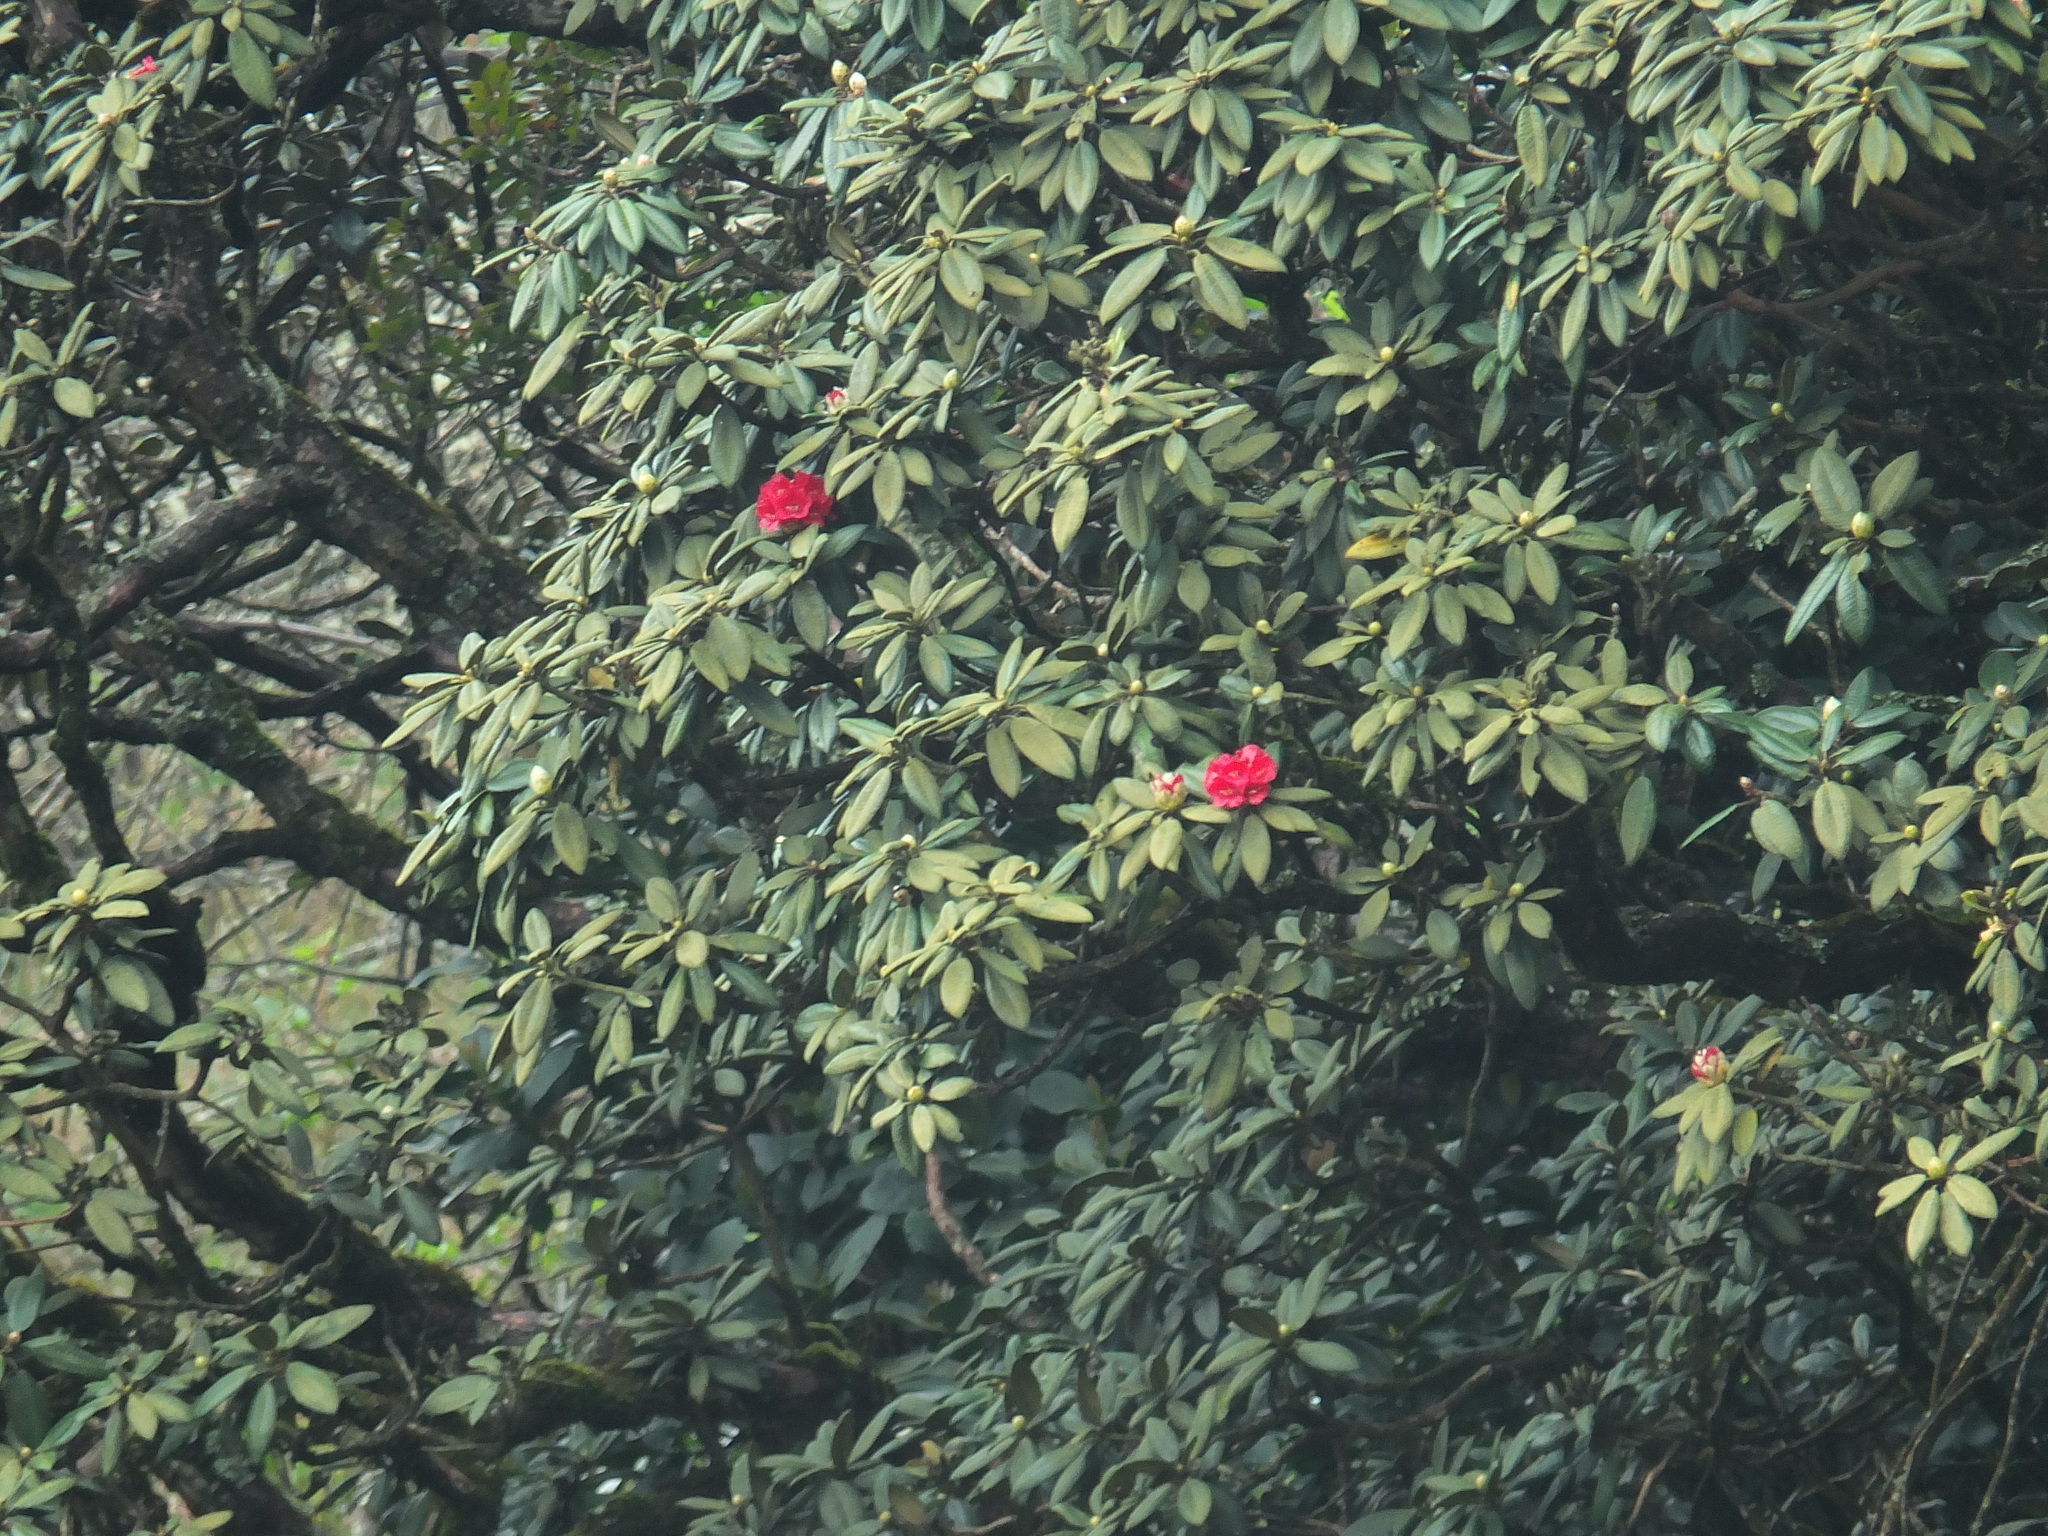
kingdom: Plantae
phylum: Tracheophyta
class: Magnoliopsida
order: Ericales
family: Ericaceae
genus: Rhododendron
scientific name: Rhododendron arboreum
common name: Tree rhododendron
